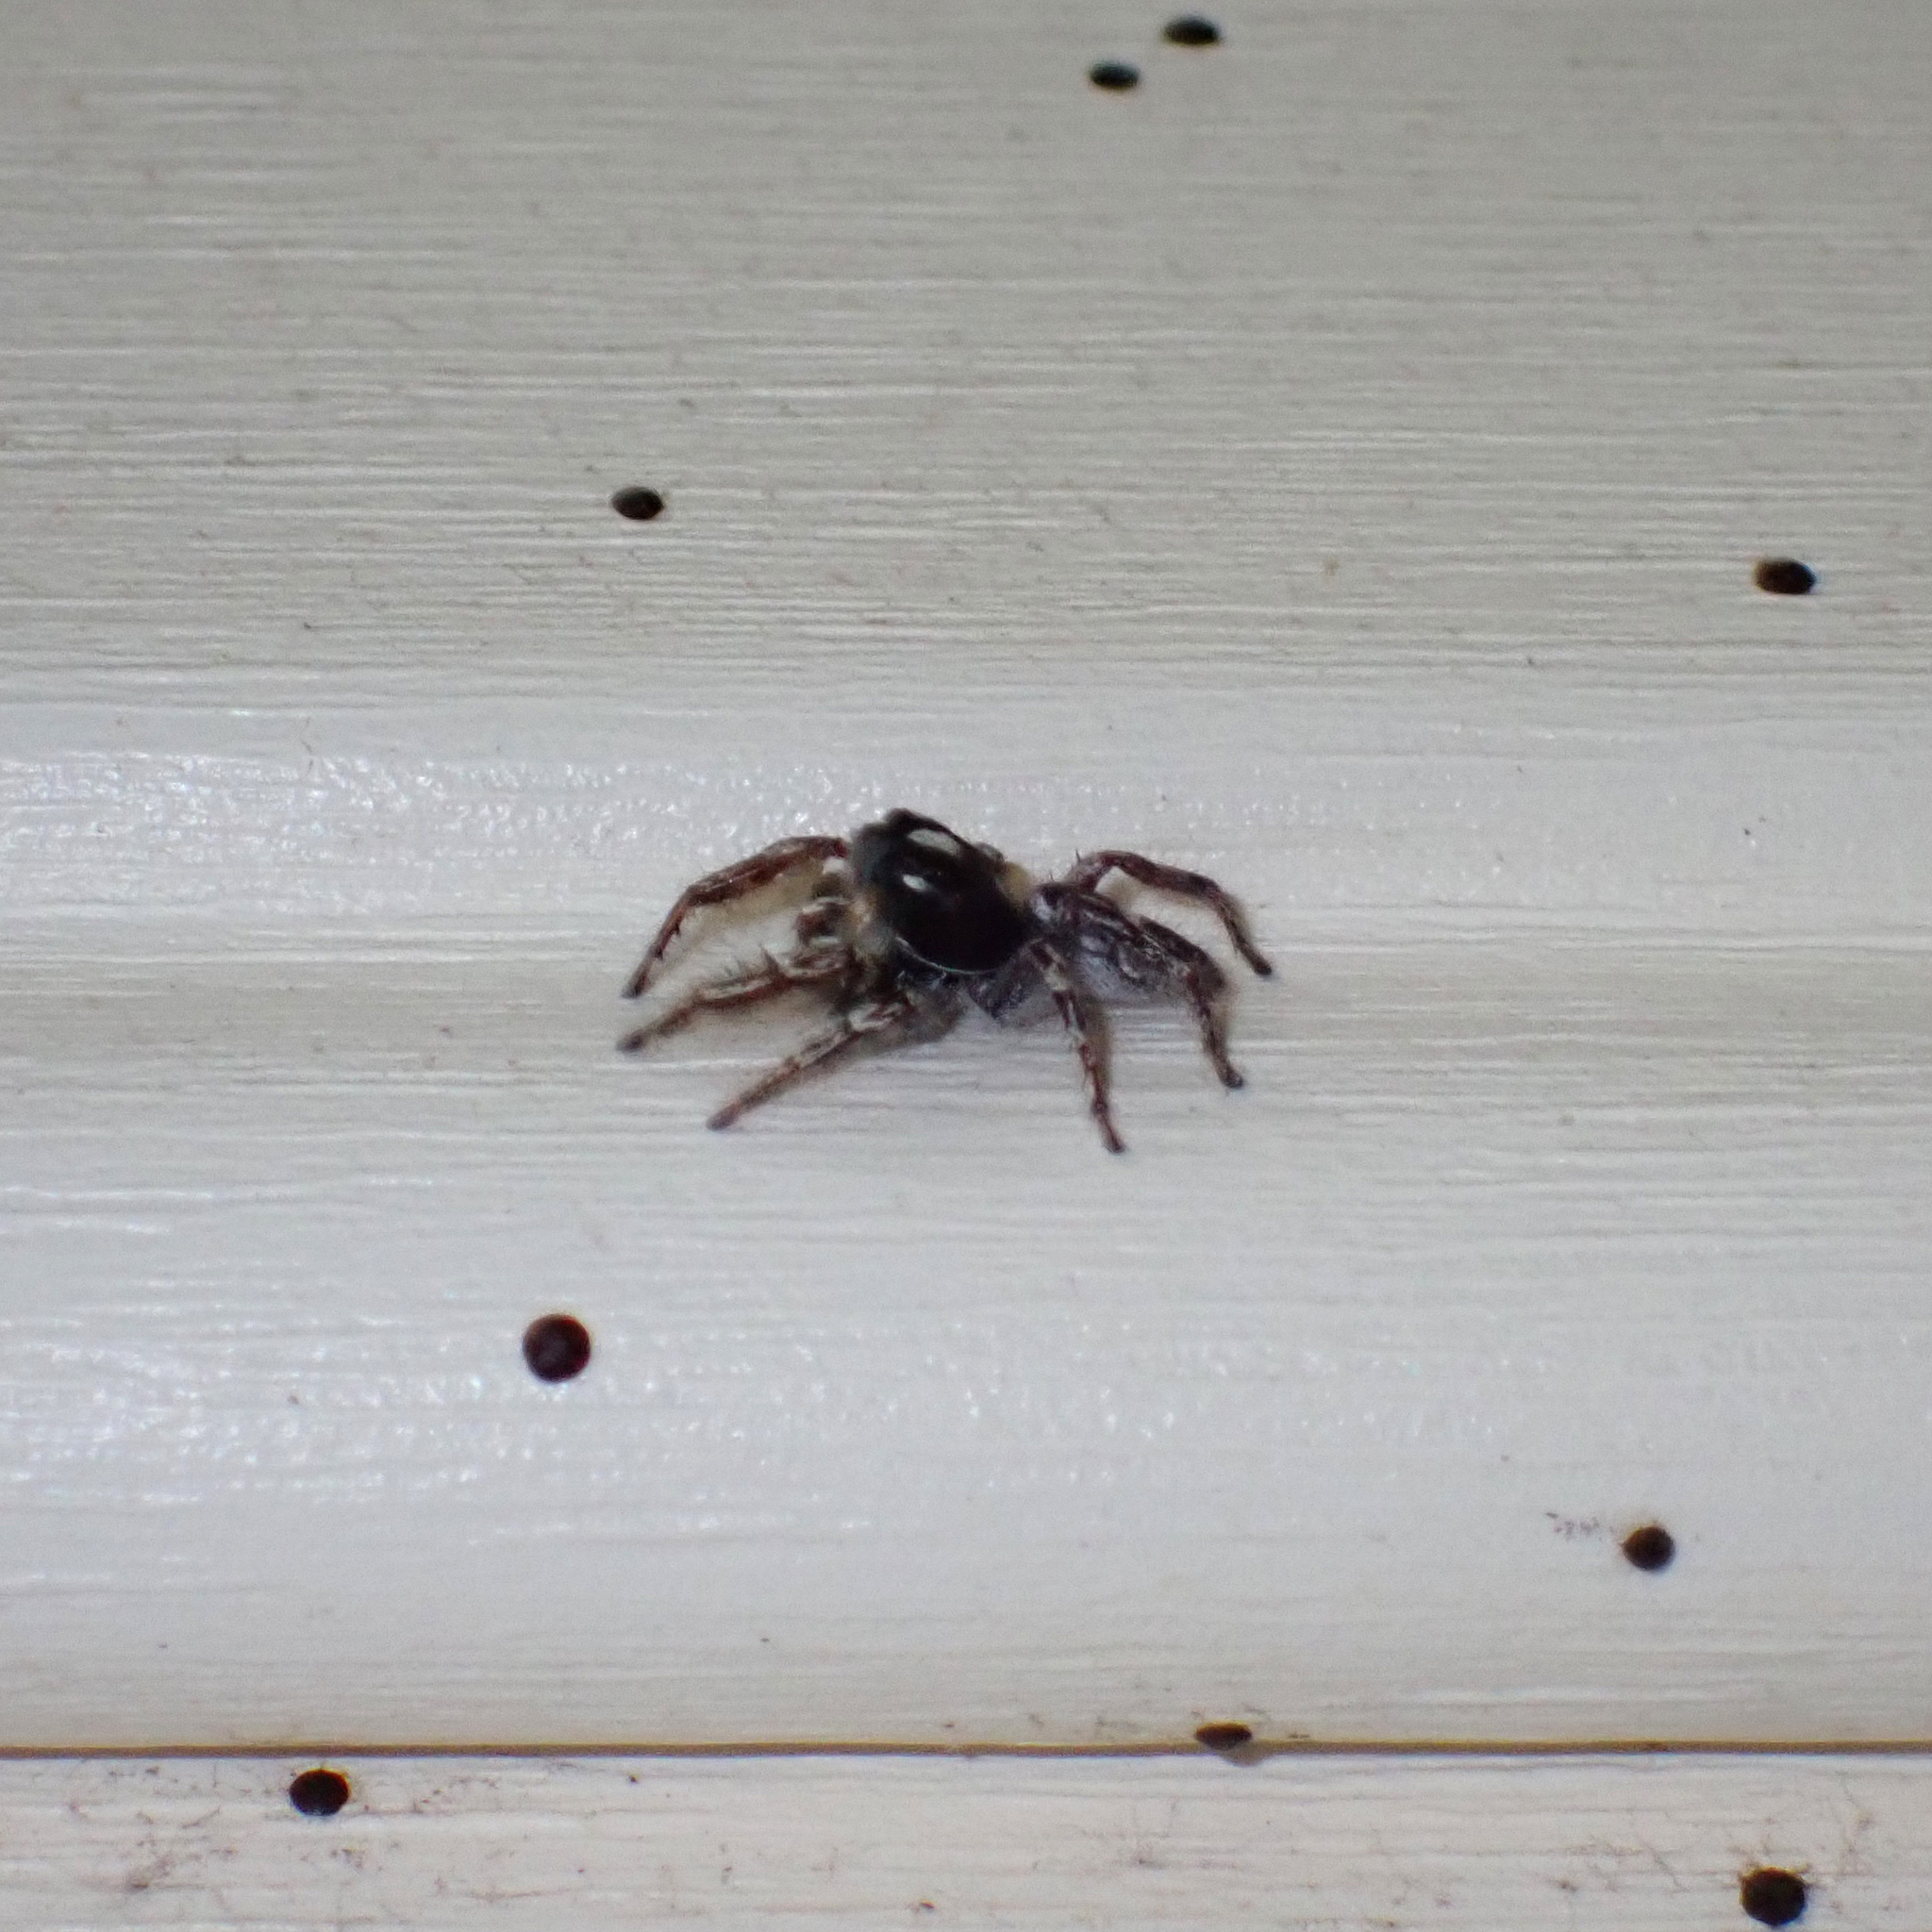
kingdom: Animalia
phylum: Arthropoda
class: Arachnida
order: Araneae
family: Salticidae
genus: Phidippus
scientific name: Phidippus putnami
